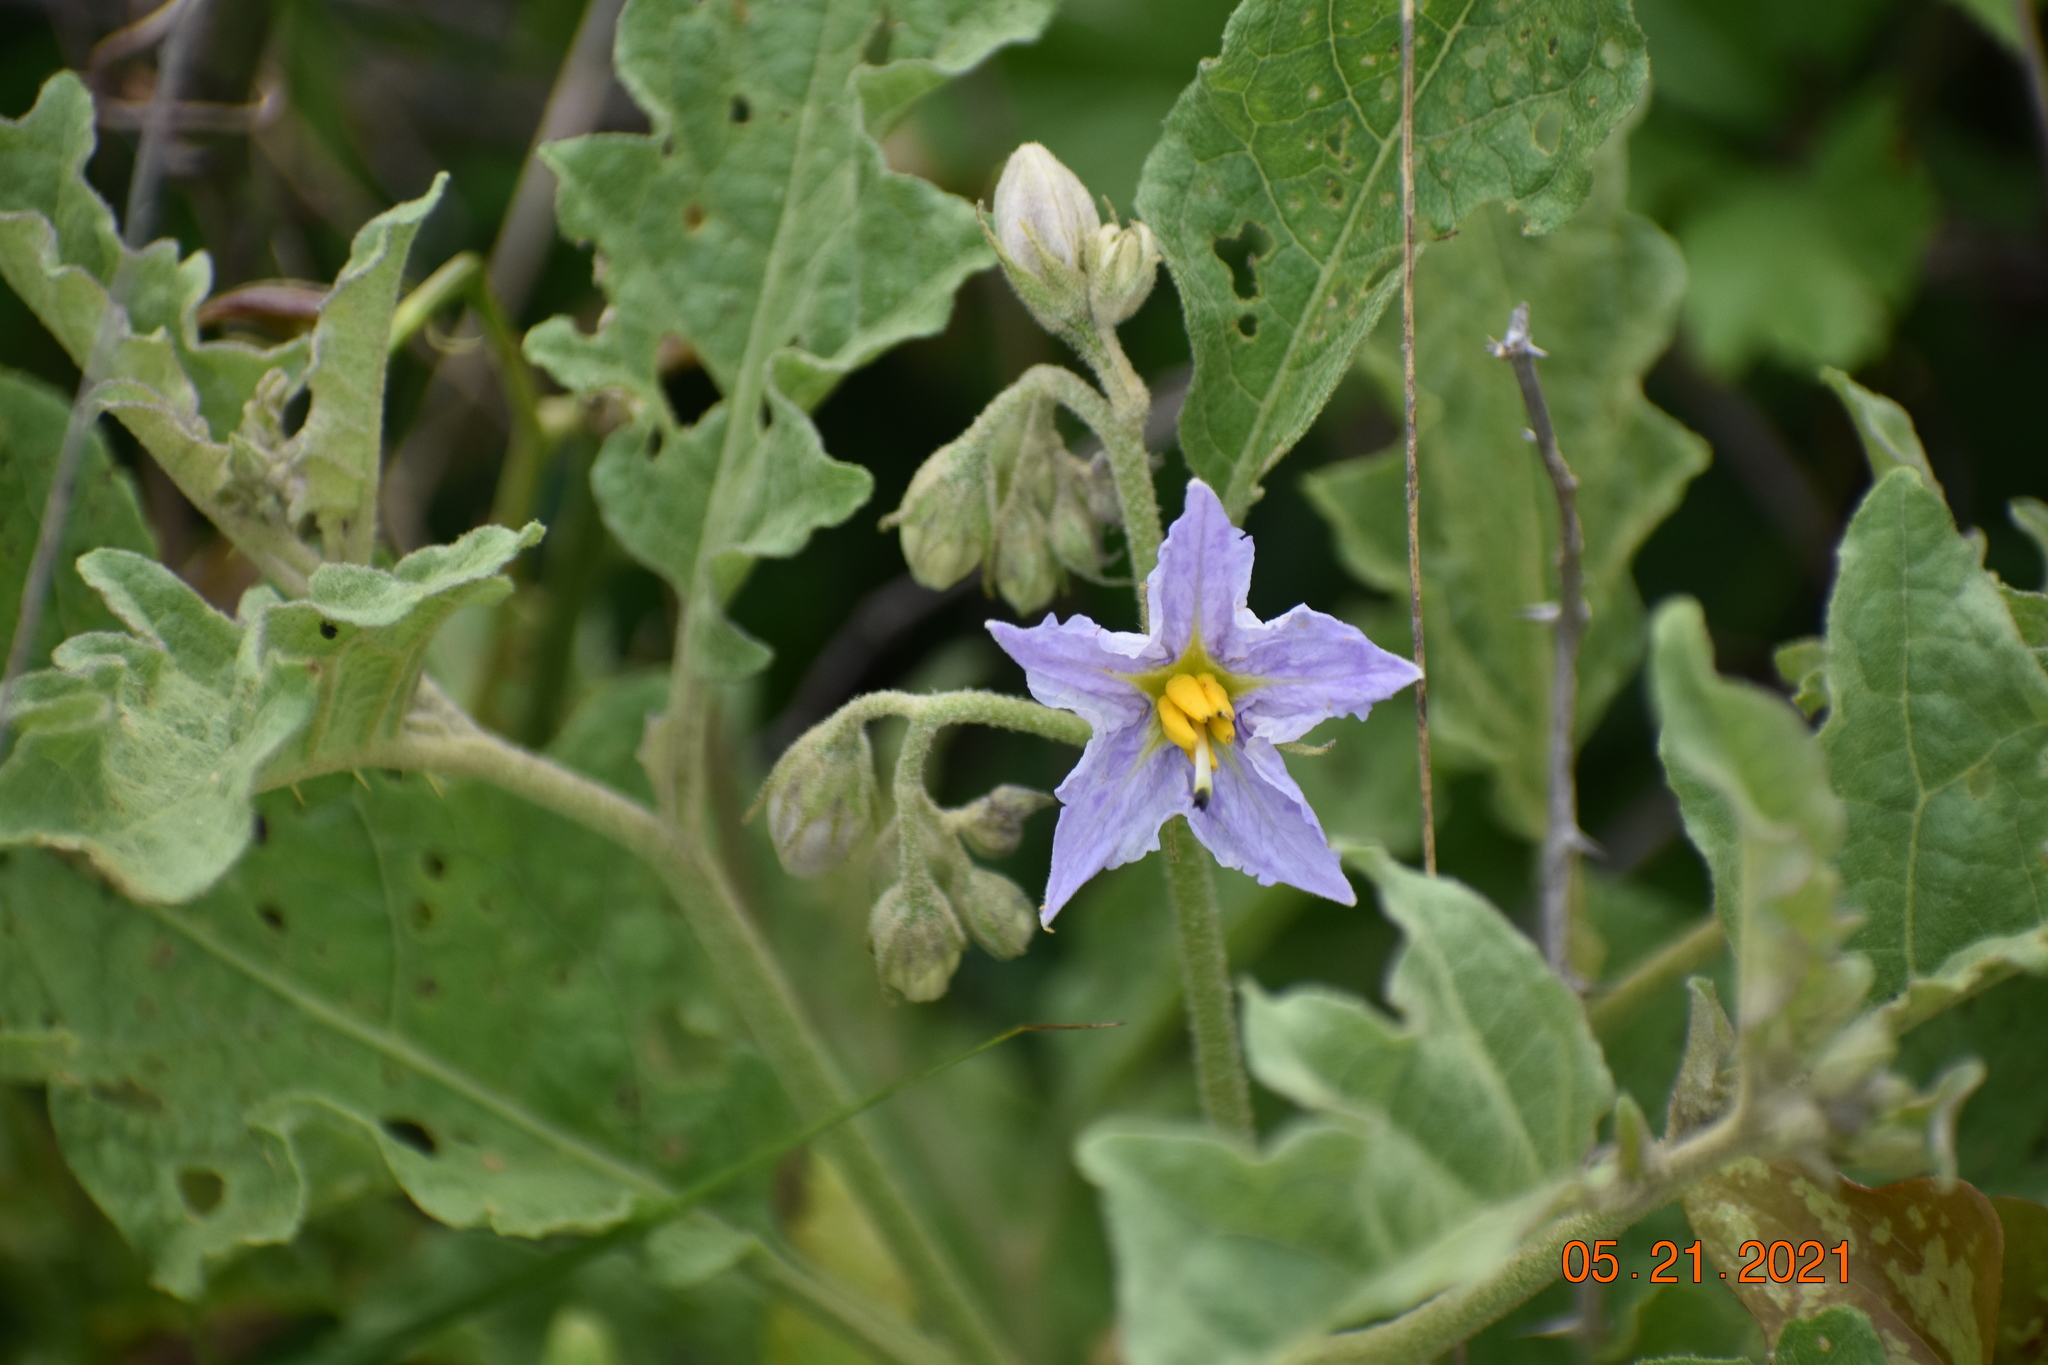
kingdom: Plantae
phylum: Tracheophyta
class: Magnoliopsida
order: Solanales
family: Solanaceae
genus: Solanum
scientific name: Solanum dimidiatum
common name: Carolina horse-nettle
